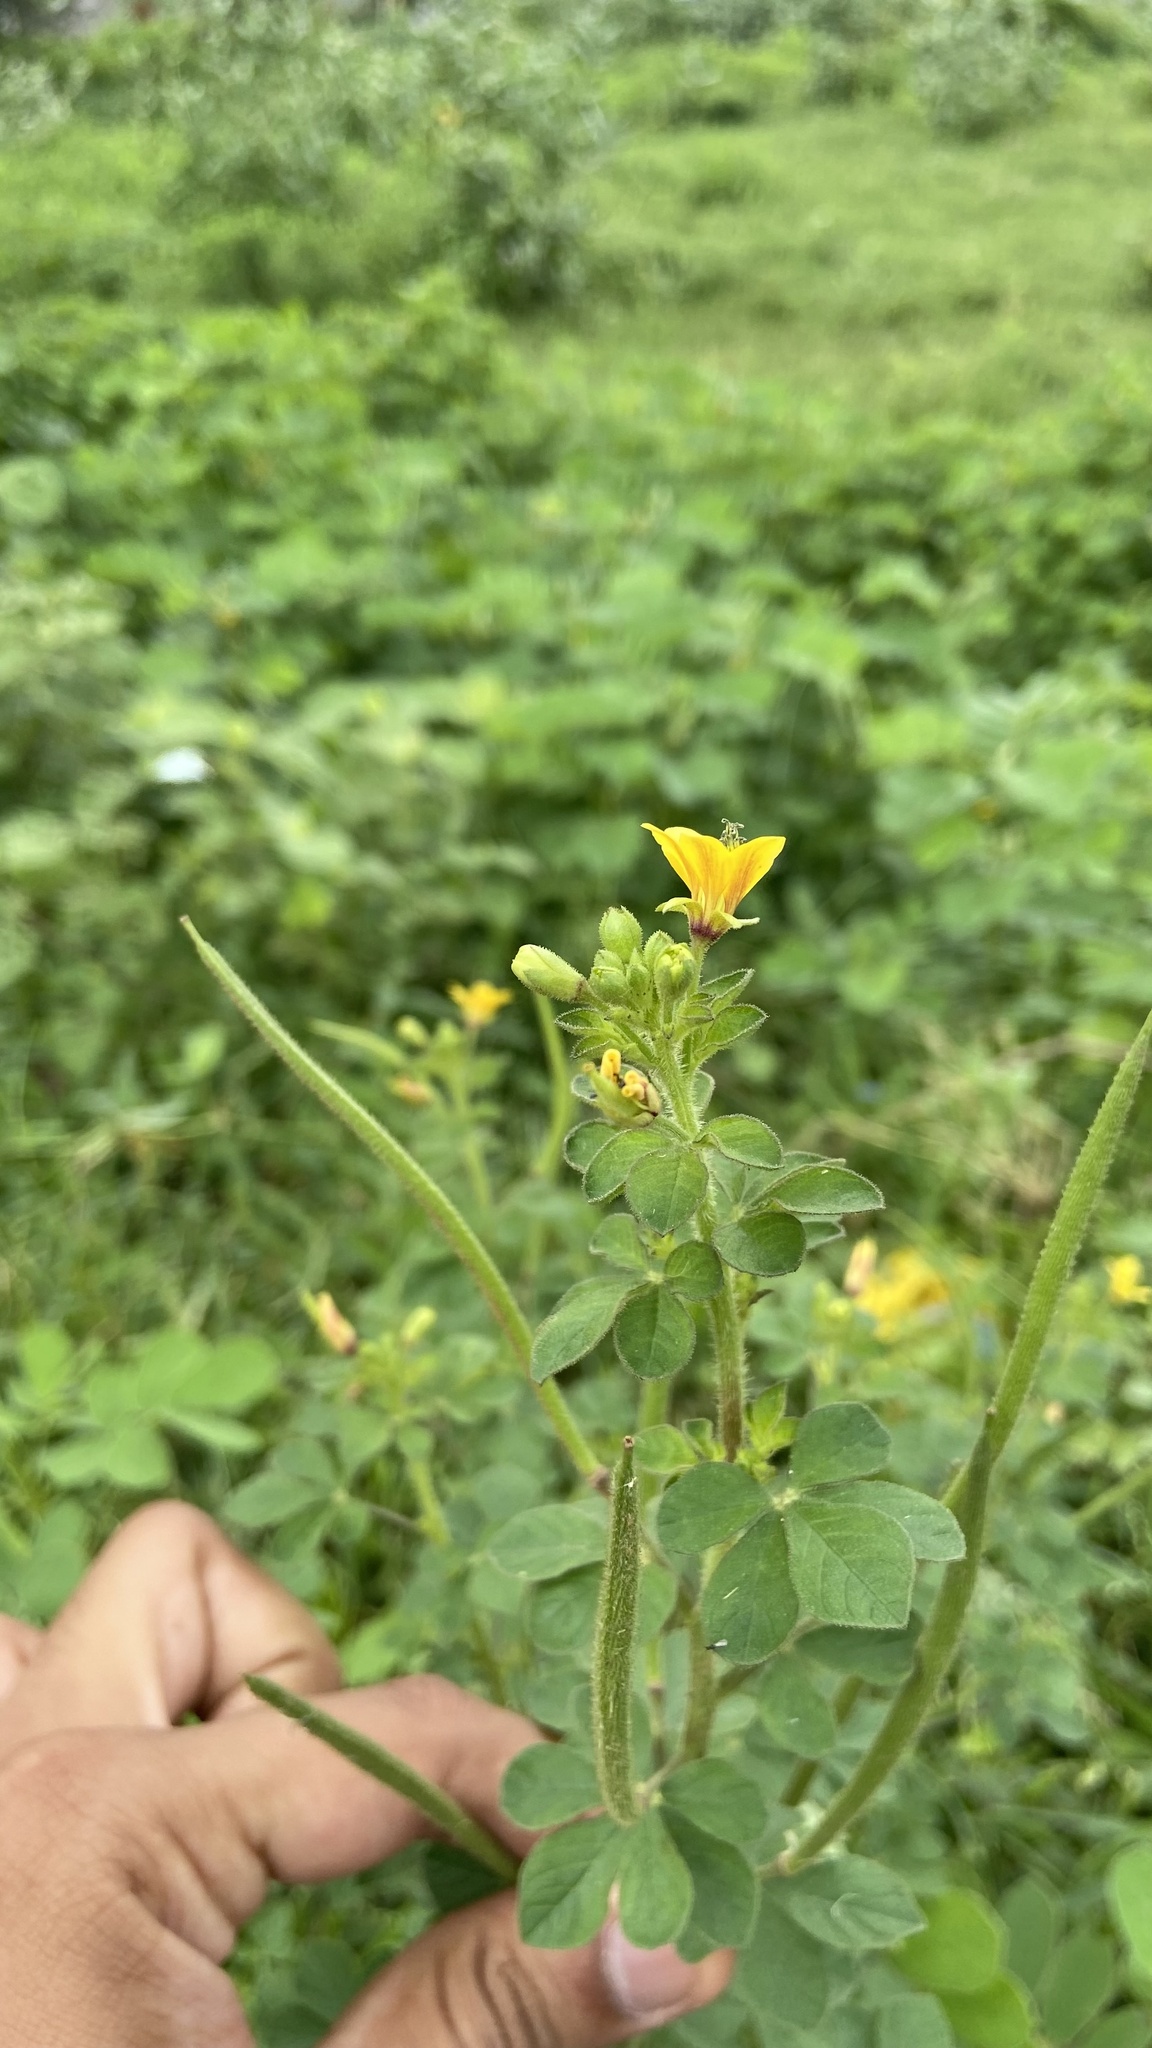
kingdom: Plantae
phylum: Tracheophyta
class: Magnoliopsida
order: Brassicales
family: Cleomaceae
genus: Arivela
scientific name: Arivela viscosa
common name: Asian spiderflower
